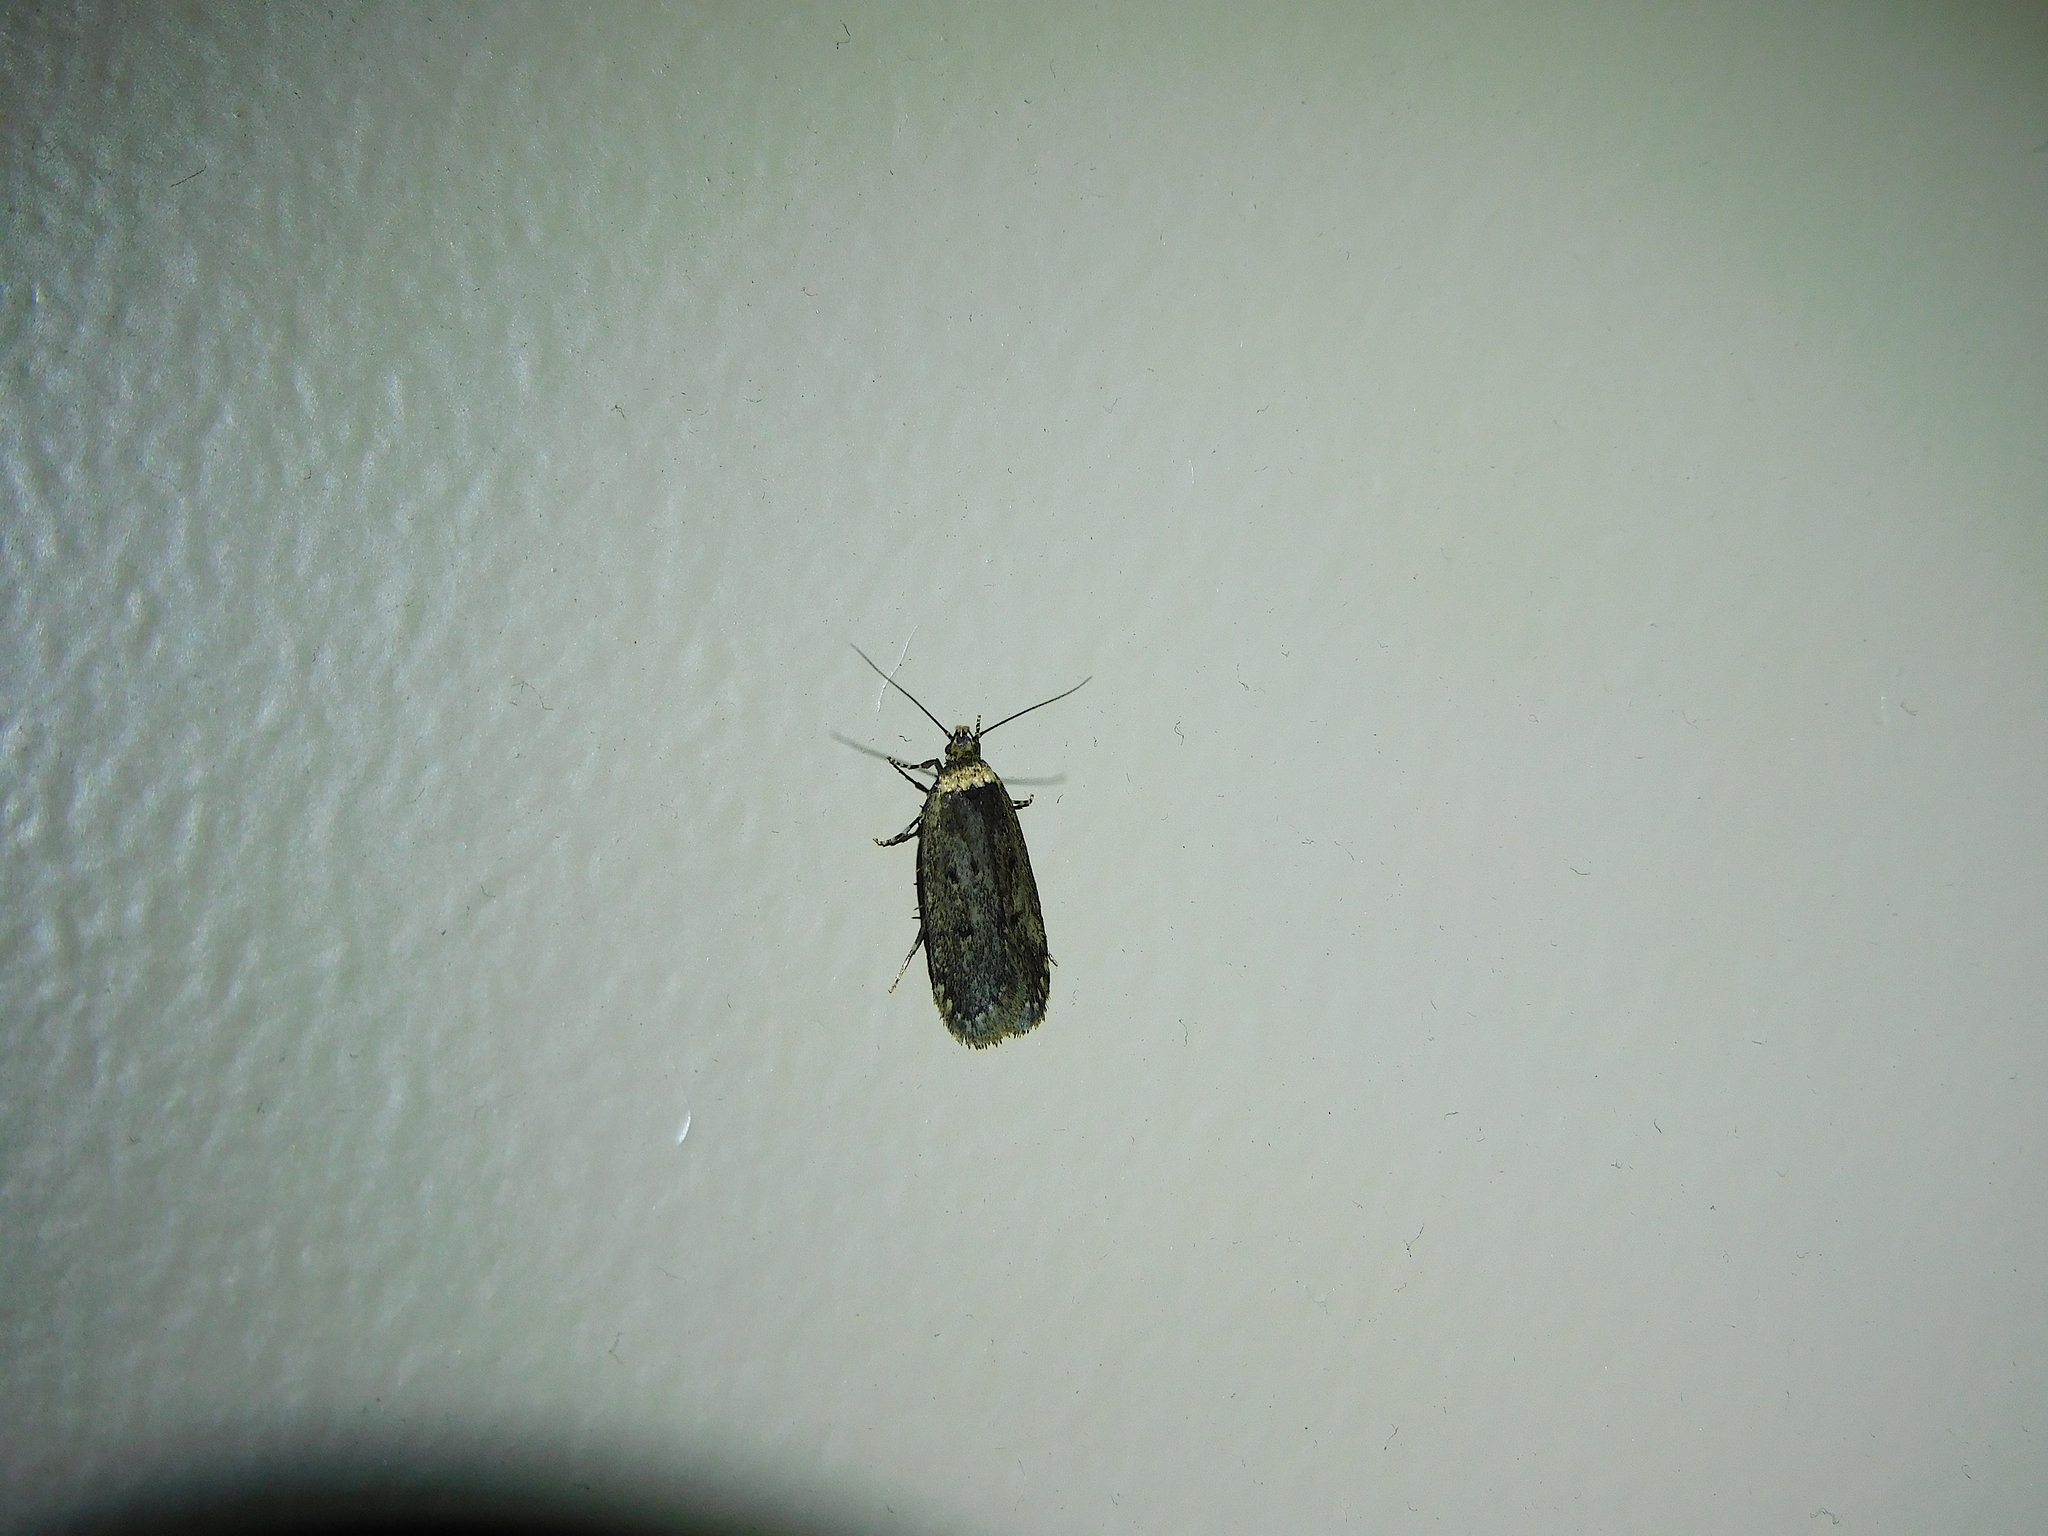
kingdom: Animalia
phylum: Arthropoda
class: Insecta
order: Lepidoptera
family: Oecophoridae
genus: Mimobrachyoma
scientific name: Mimobrachyoma pseudopis
